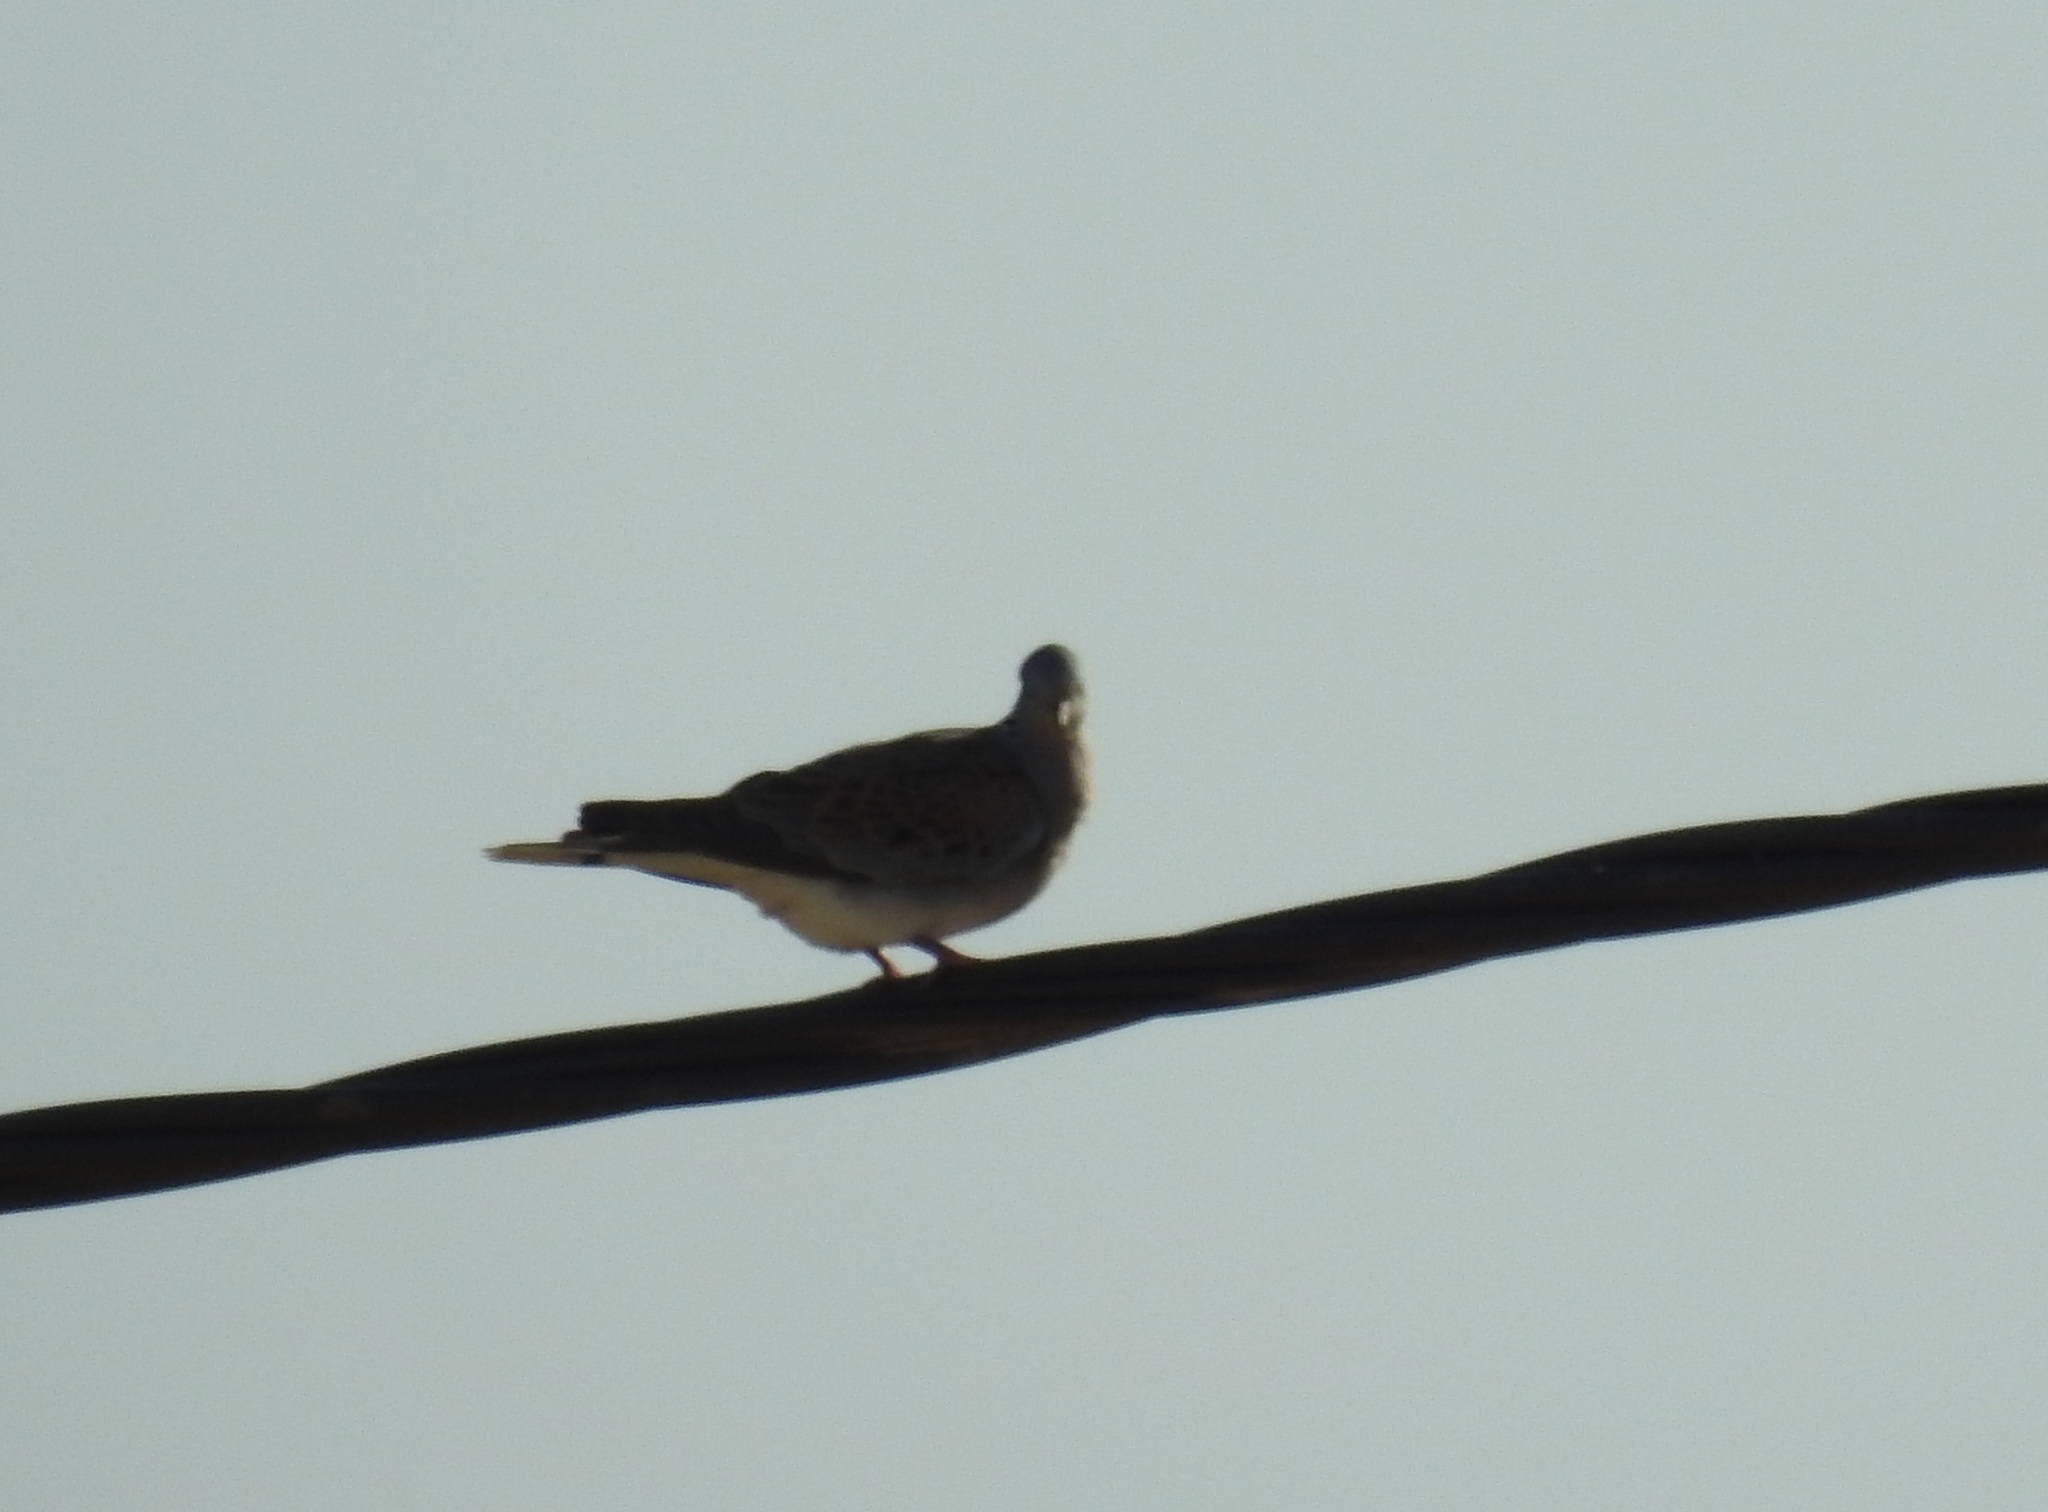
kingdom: Animalia
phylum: Chordata
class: Aves
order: Columbiformes
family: Columbidae
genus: Streptopelia
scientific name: Streptopelia turtur
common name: European turtle dove
